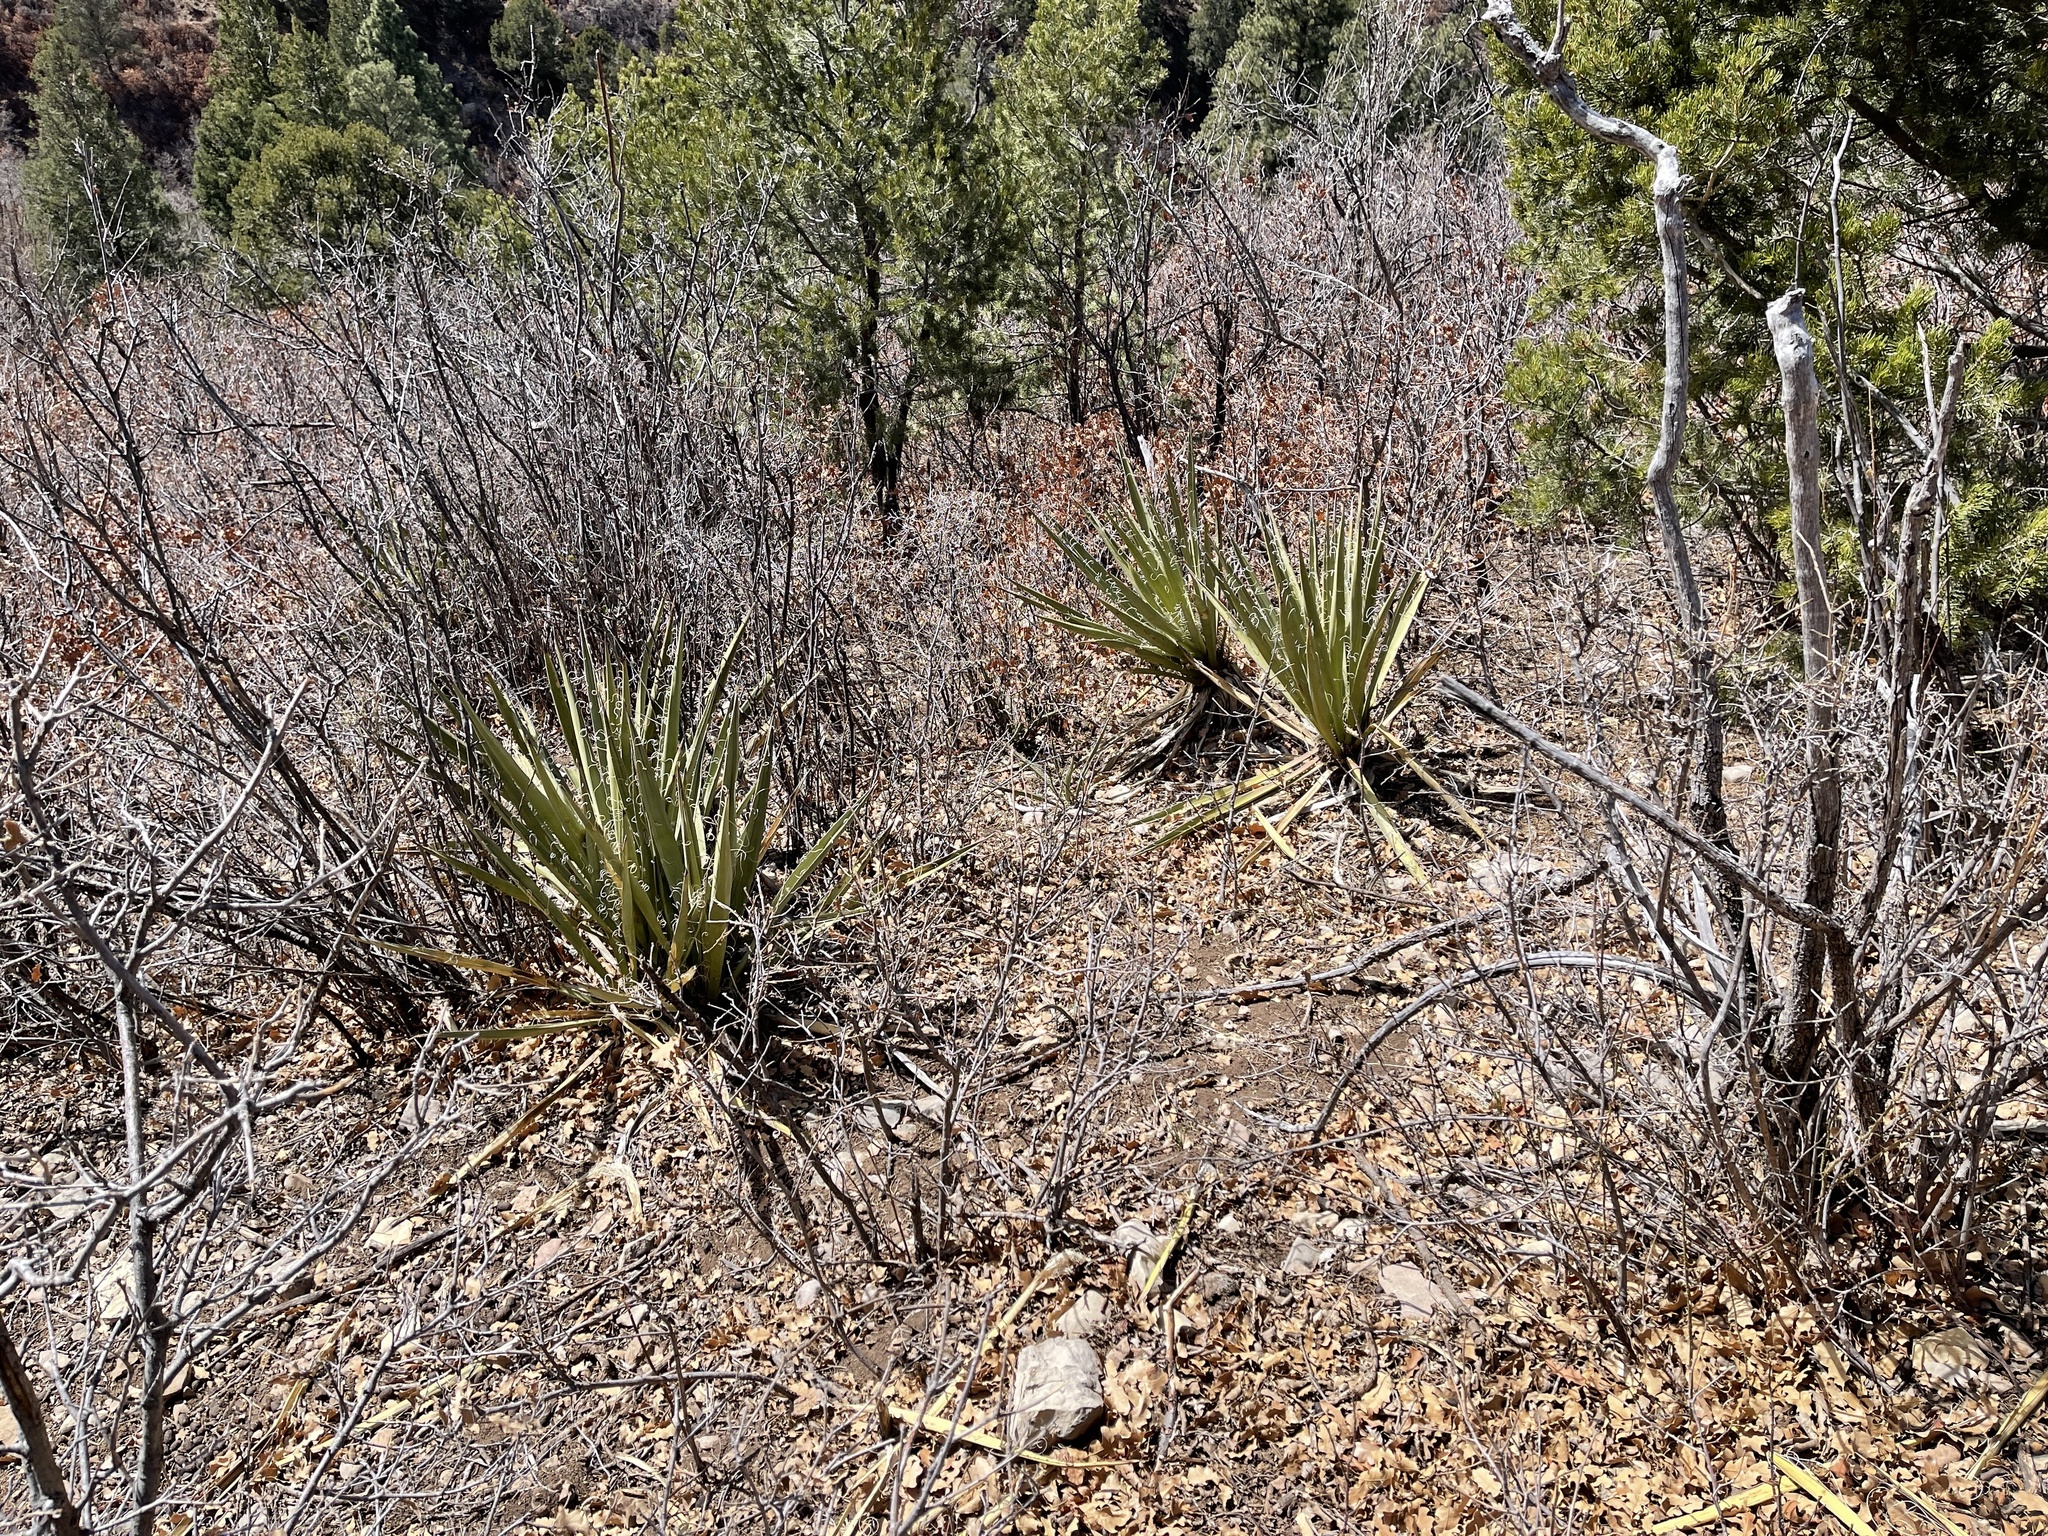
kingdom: Plantae
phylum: Tracheophyta
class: Liliopsida
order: Asparagales
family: Asparagaceae
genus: Yucca
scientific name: Yucca baccata
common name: Banana yucca
